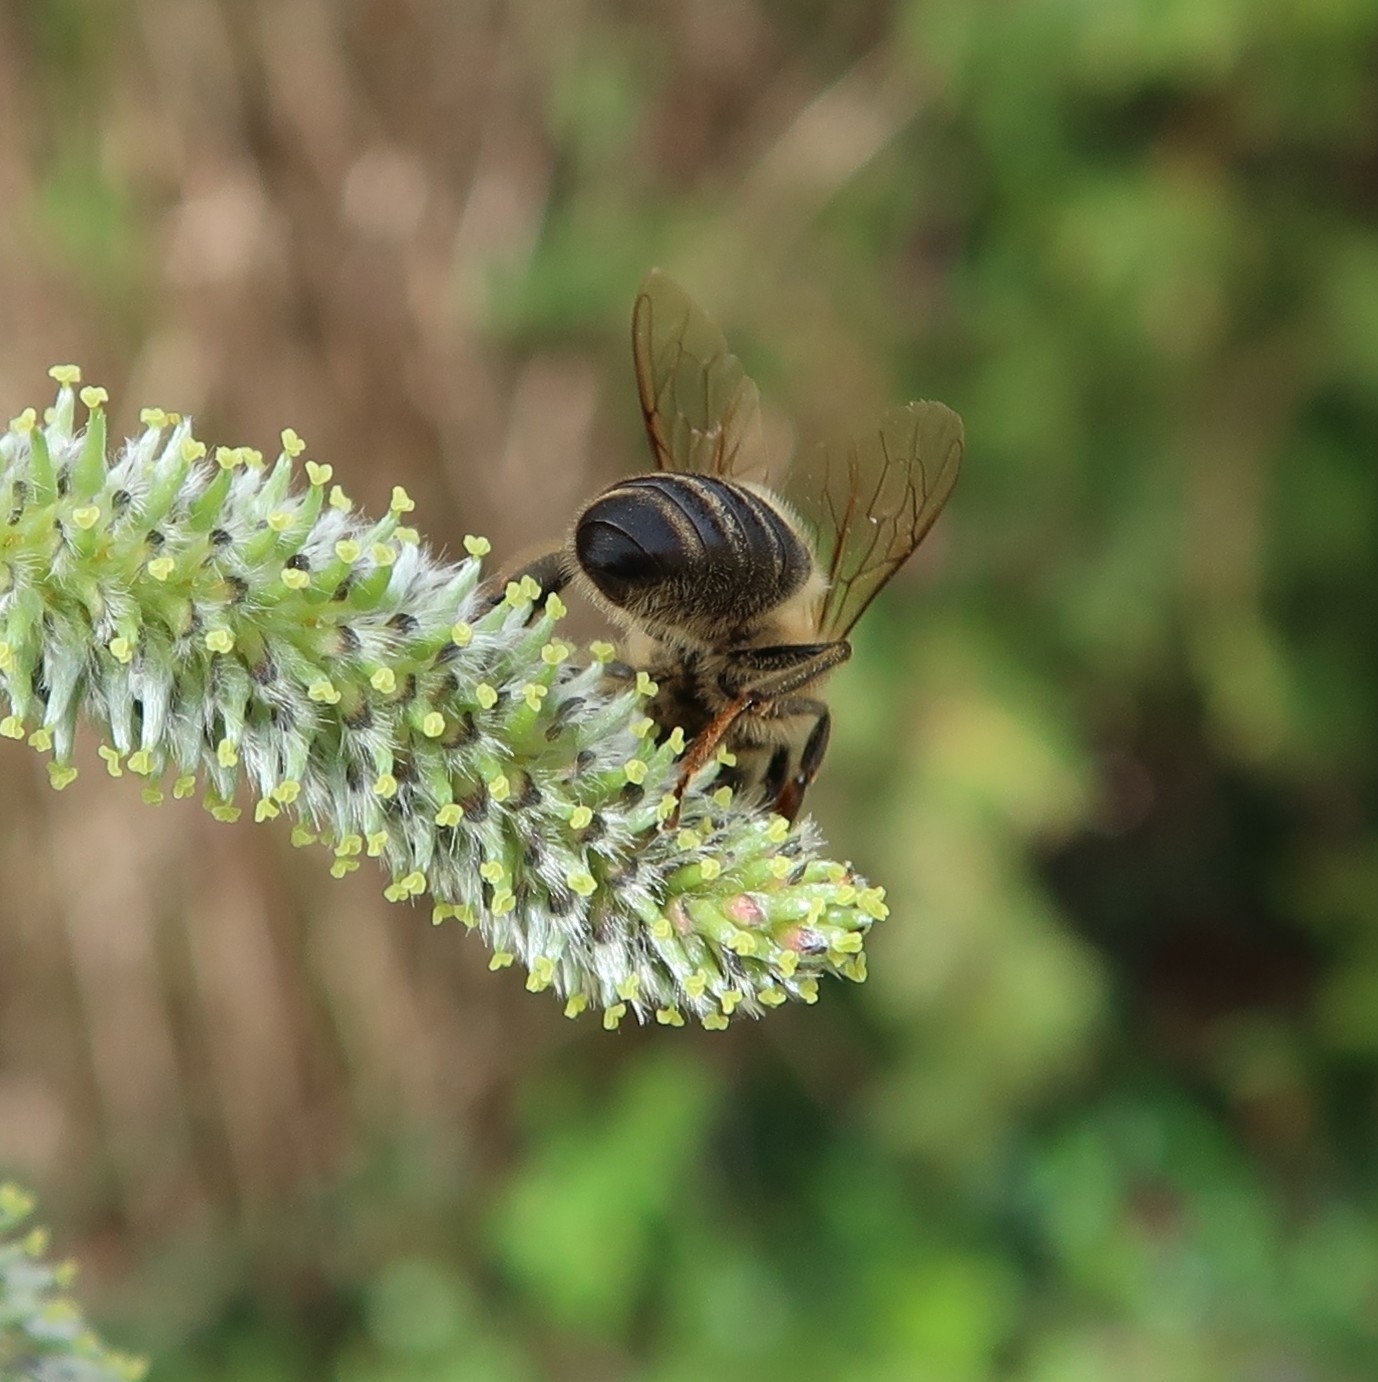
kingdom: Animalia
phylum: Arthropoda
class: Insecta
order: Hymenoptera
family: Apidae
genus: Apis
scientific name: Apis mellifera
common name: Honey bee
